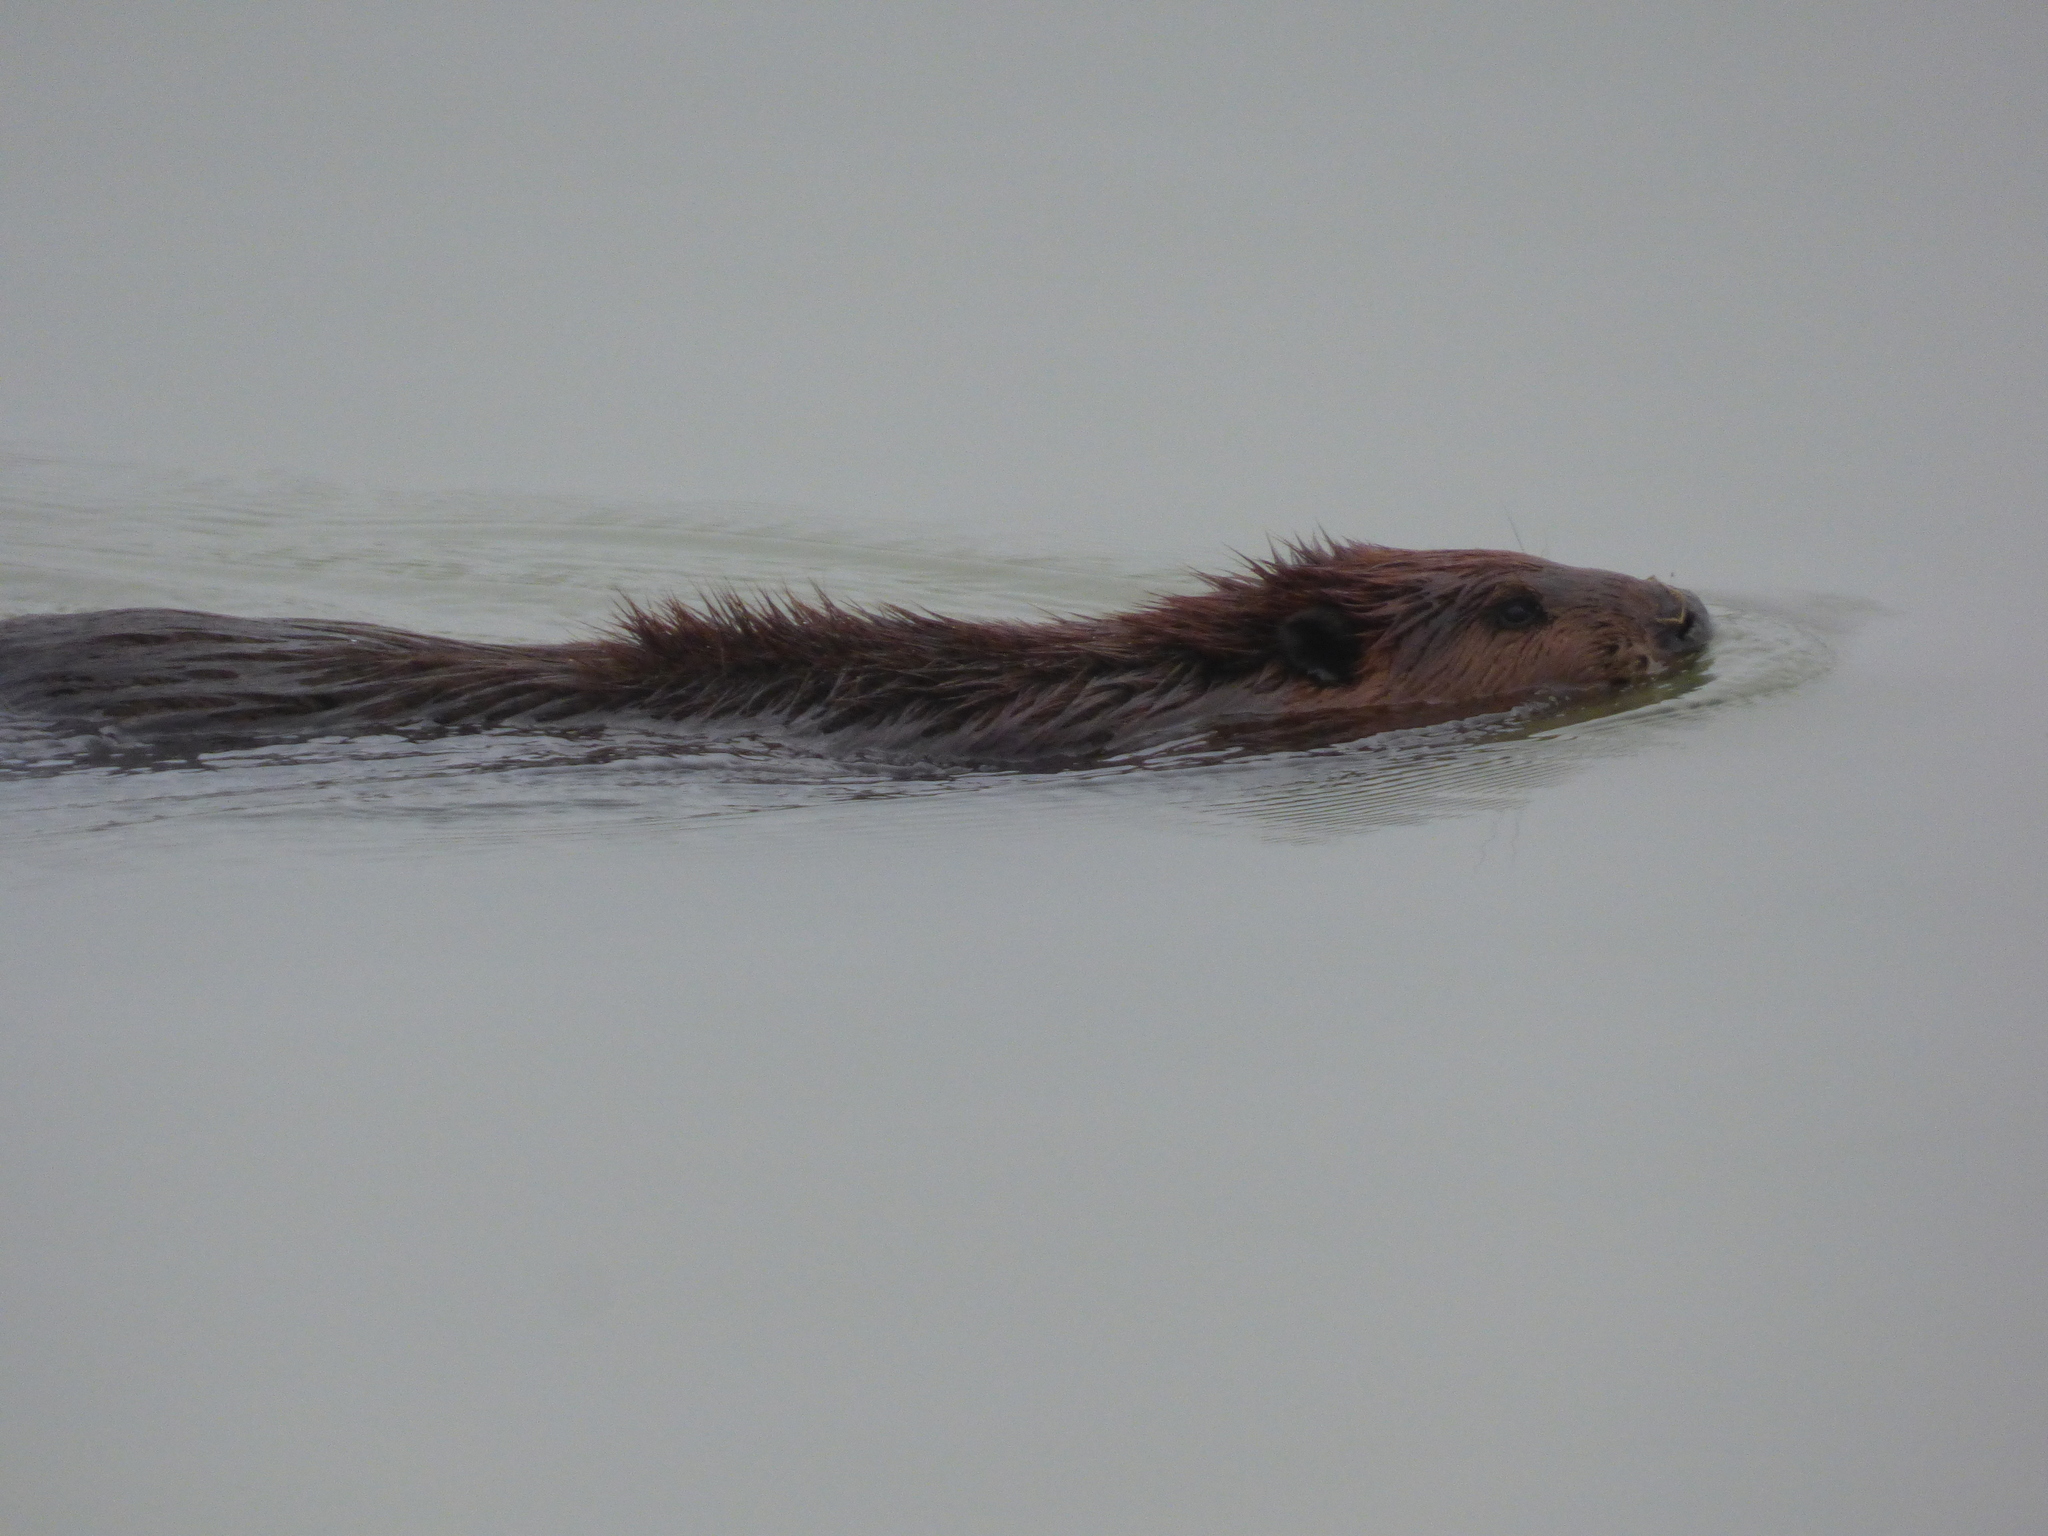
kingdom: Animalia
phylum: Chordata
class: Mammalia
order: Rodentia
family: Castoridae
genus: Castor
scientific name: Castor canadensis
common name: American beaver
